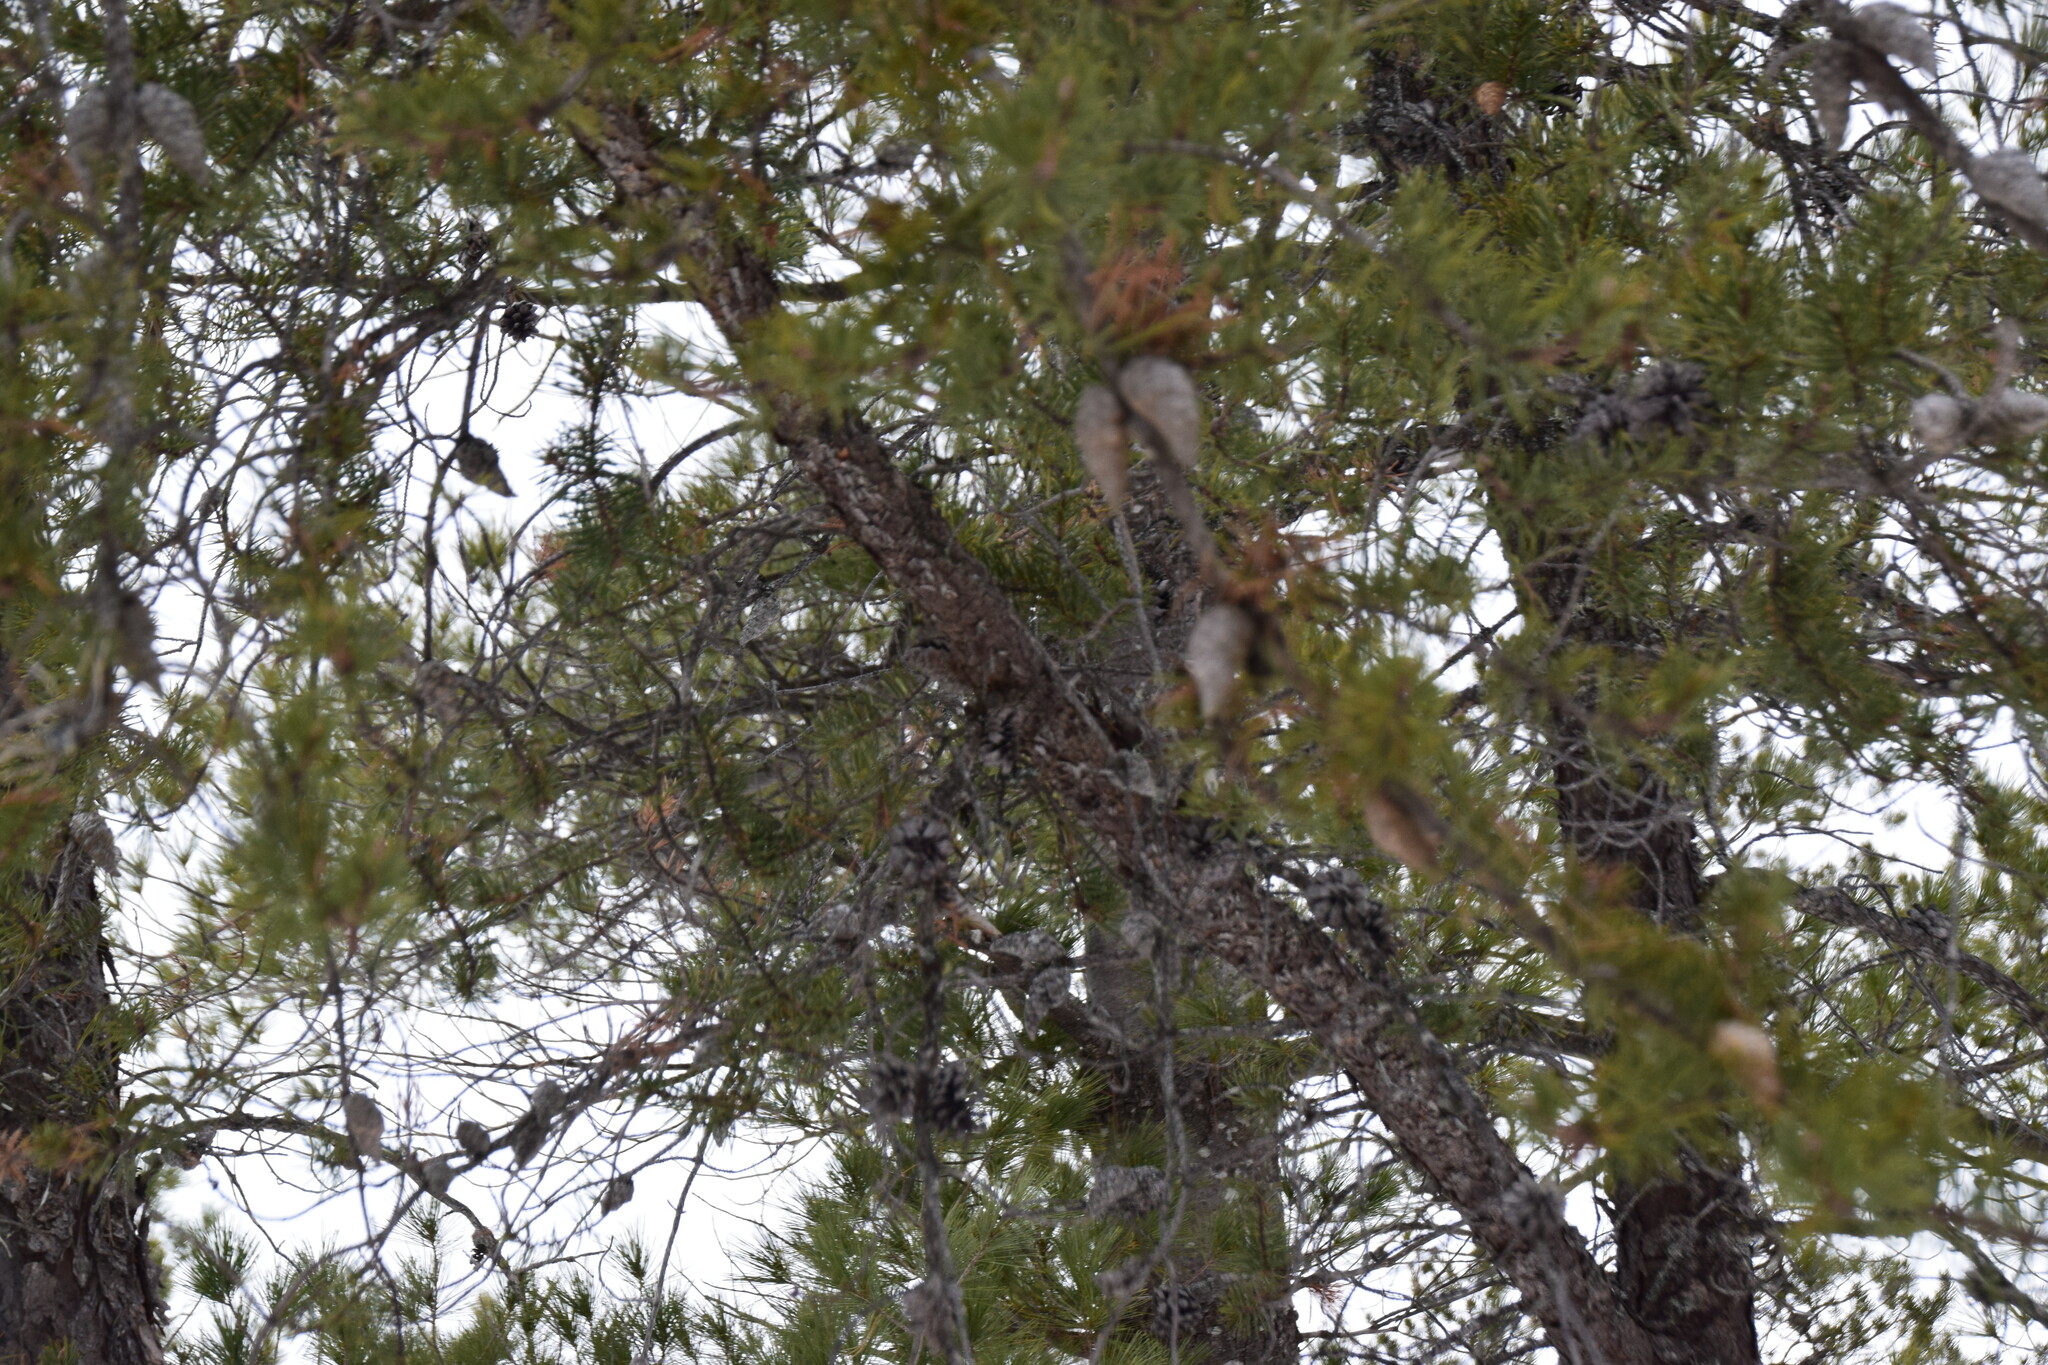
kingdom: Plantae
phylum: Tracheophyta
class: Pinopsida
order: Pinales
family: Pinaceae
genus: Pinus
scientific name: Pinus banksiana
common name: Jack pine
